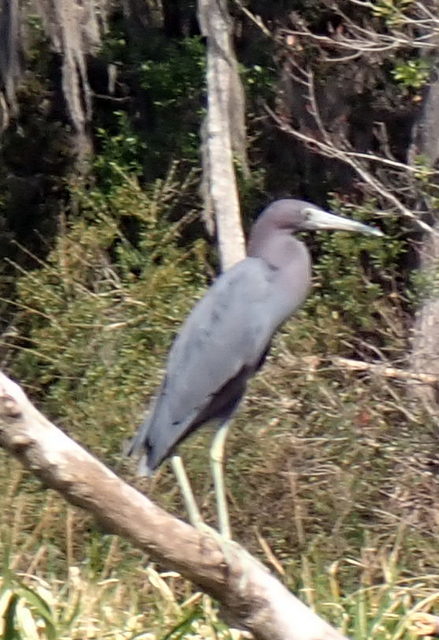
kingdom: Animalia
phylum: Chordata
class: Aves
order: Pelecaniformes
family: Ardeidae
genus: Egretta
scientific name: Egretta caerulea
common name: Little blue heron
